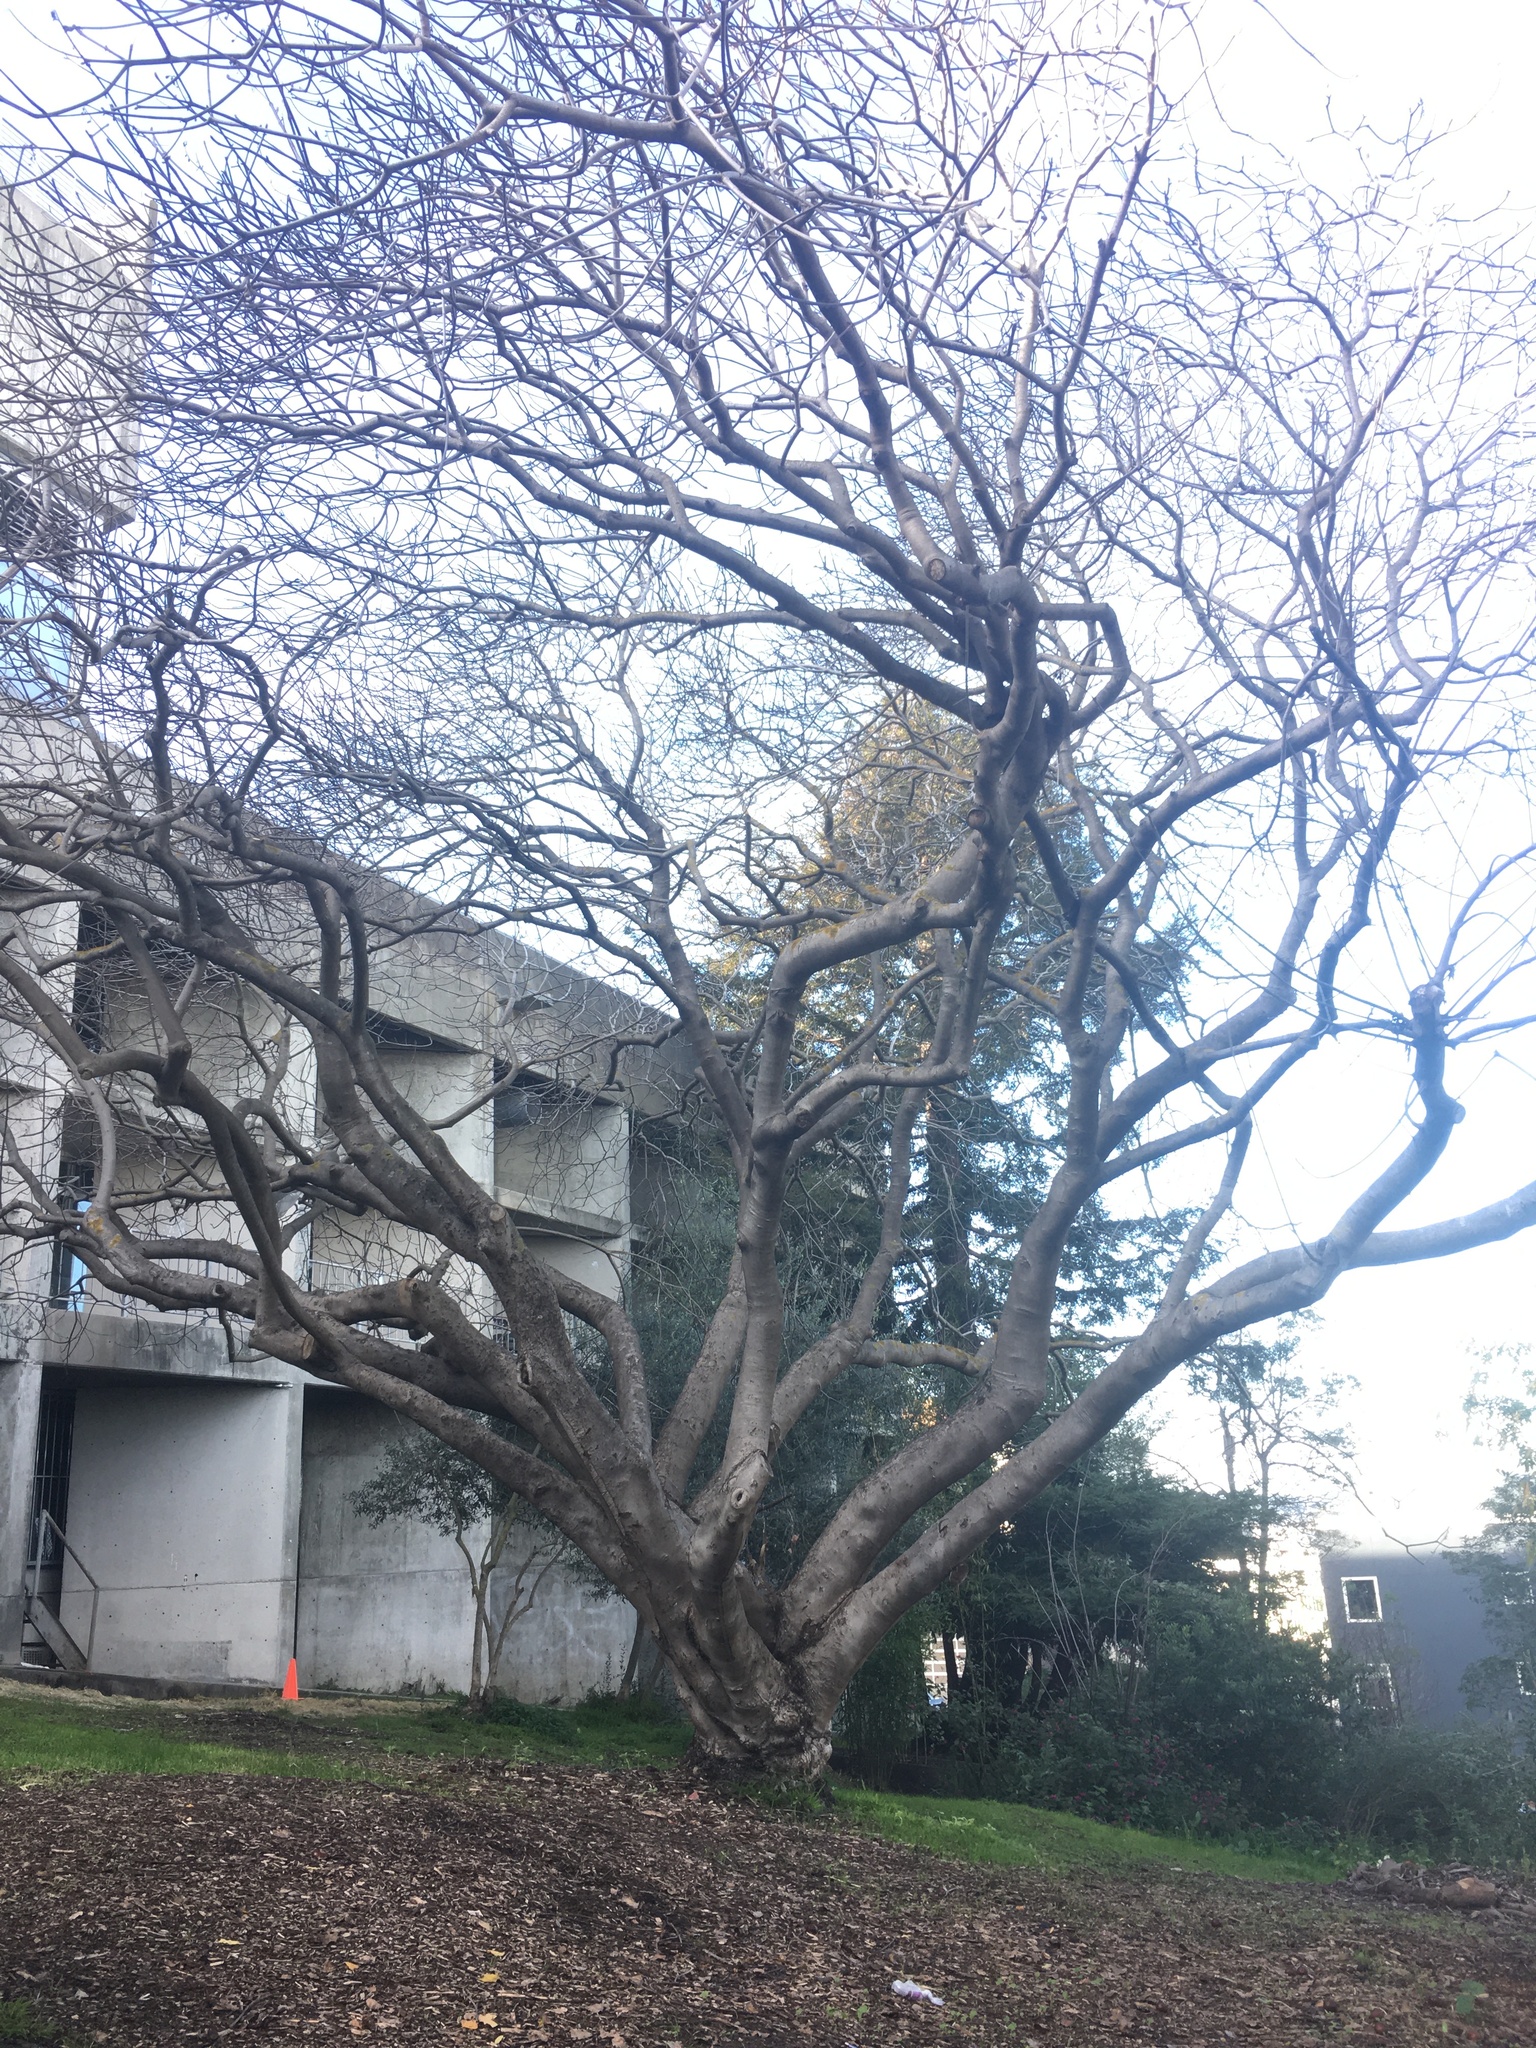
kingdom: Plantae
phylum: Tracheophyta
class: Magnoliopsida
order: Sapindales
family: Sapindaceae
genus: Aesculus
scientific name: Aesculus californica
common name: California buckeye
